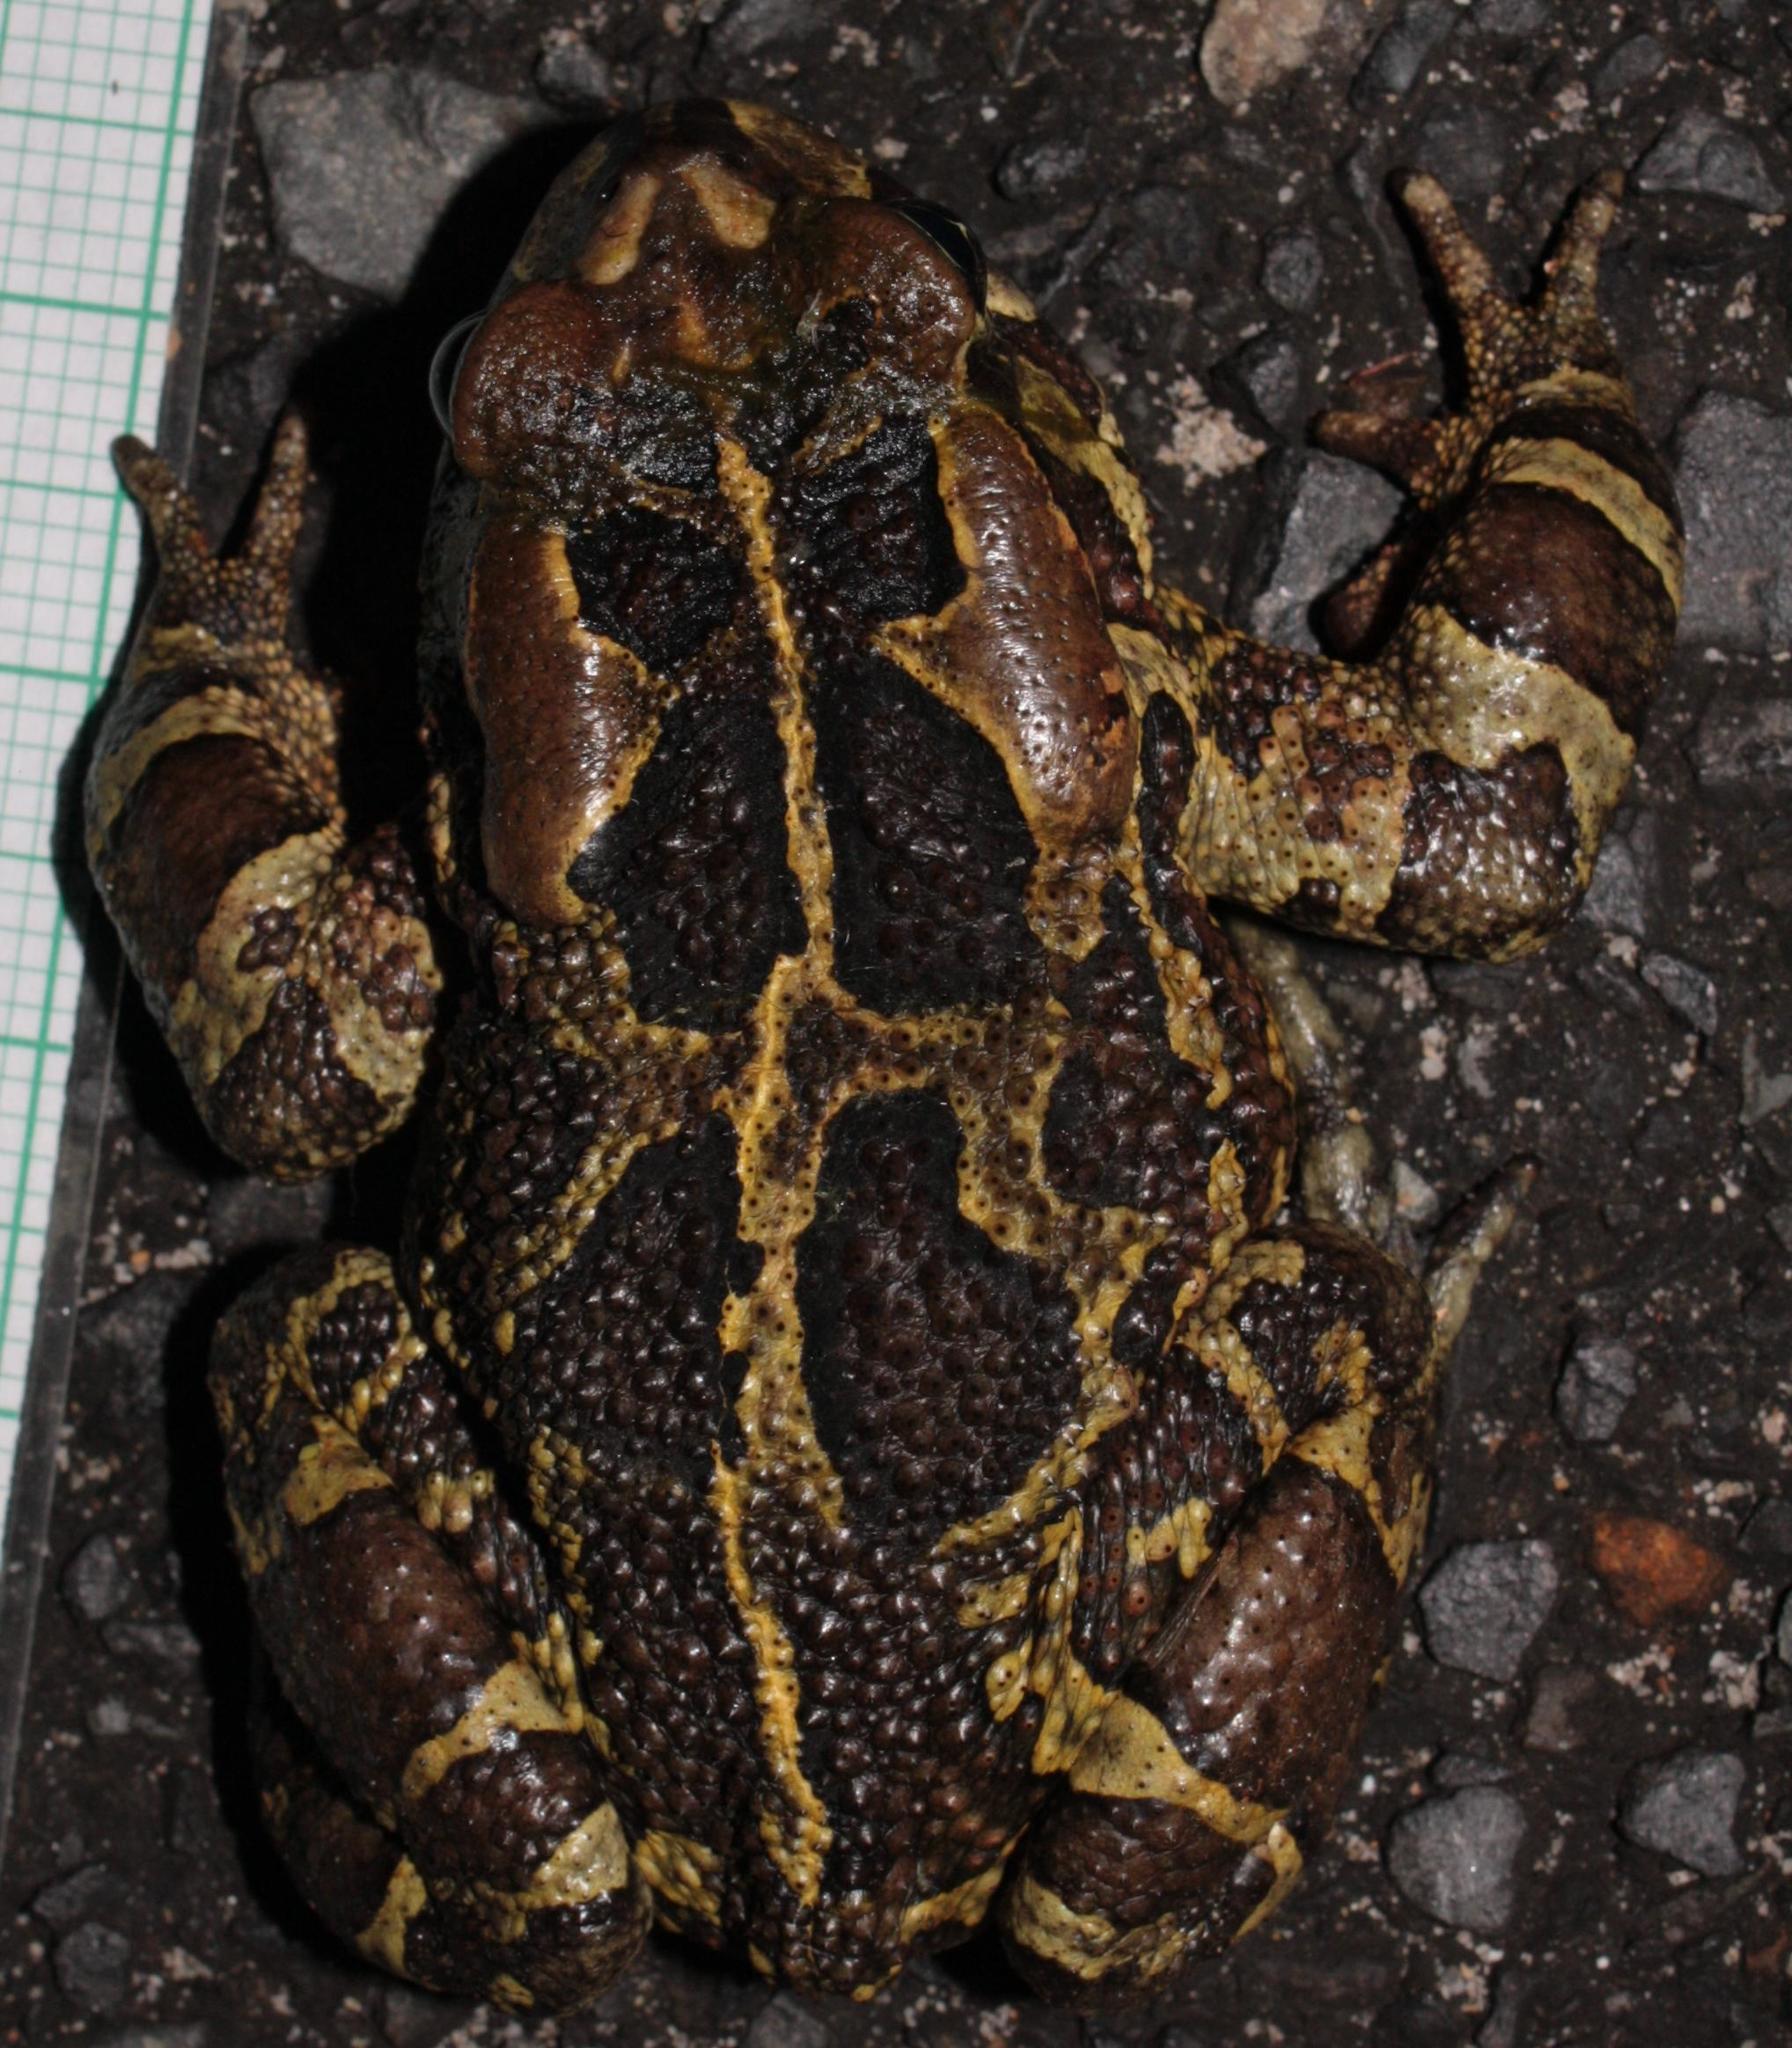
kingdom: Animalia
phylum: Chordata
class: Amphibia
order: Anura
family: Bufonidae
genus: Sclerophrys
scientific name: Sclerophrys pantherina
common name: Panther toad
